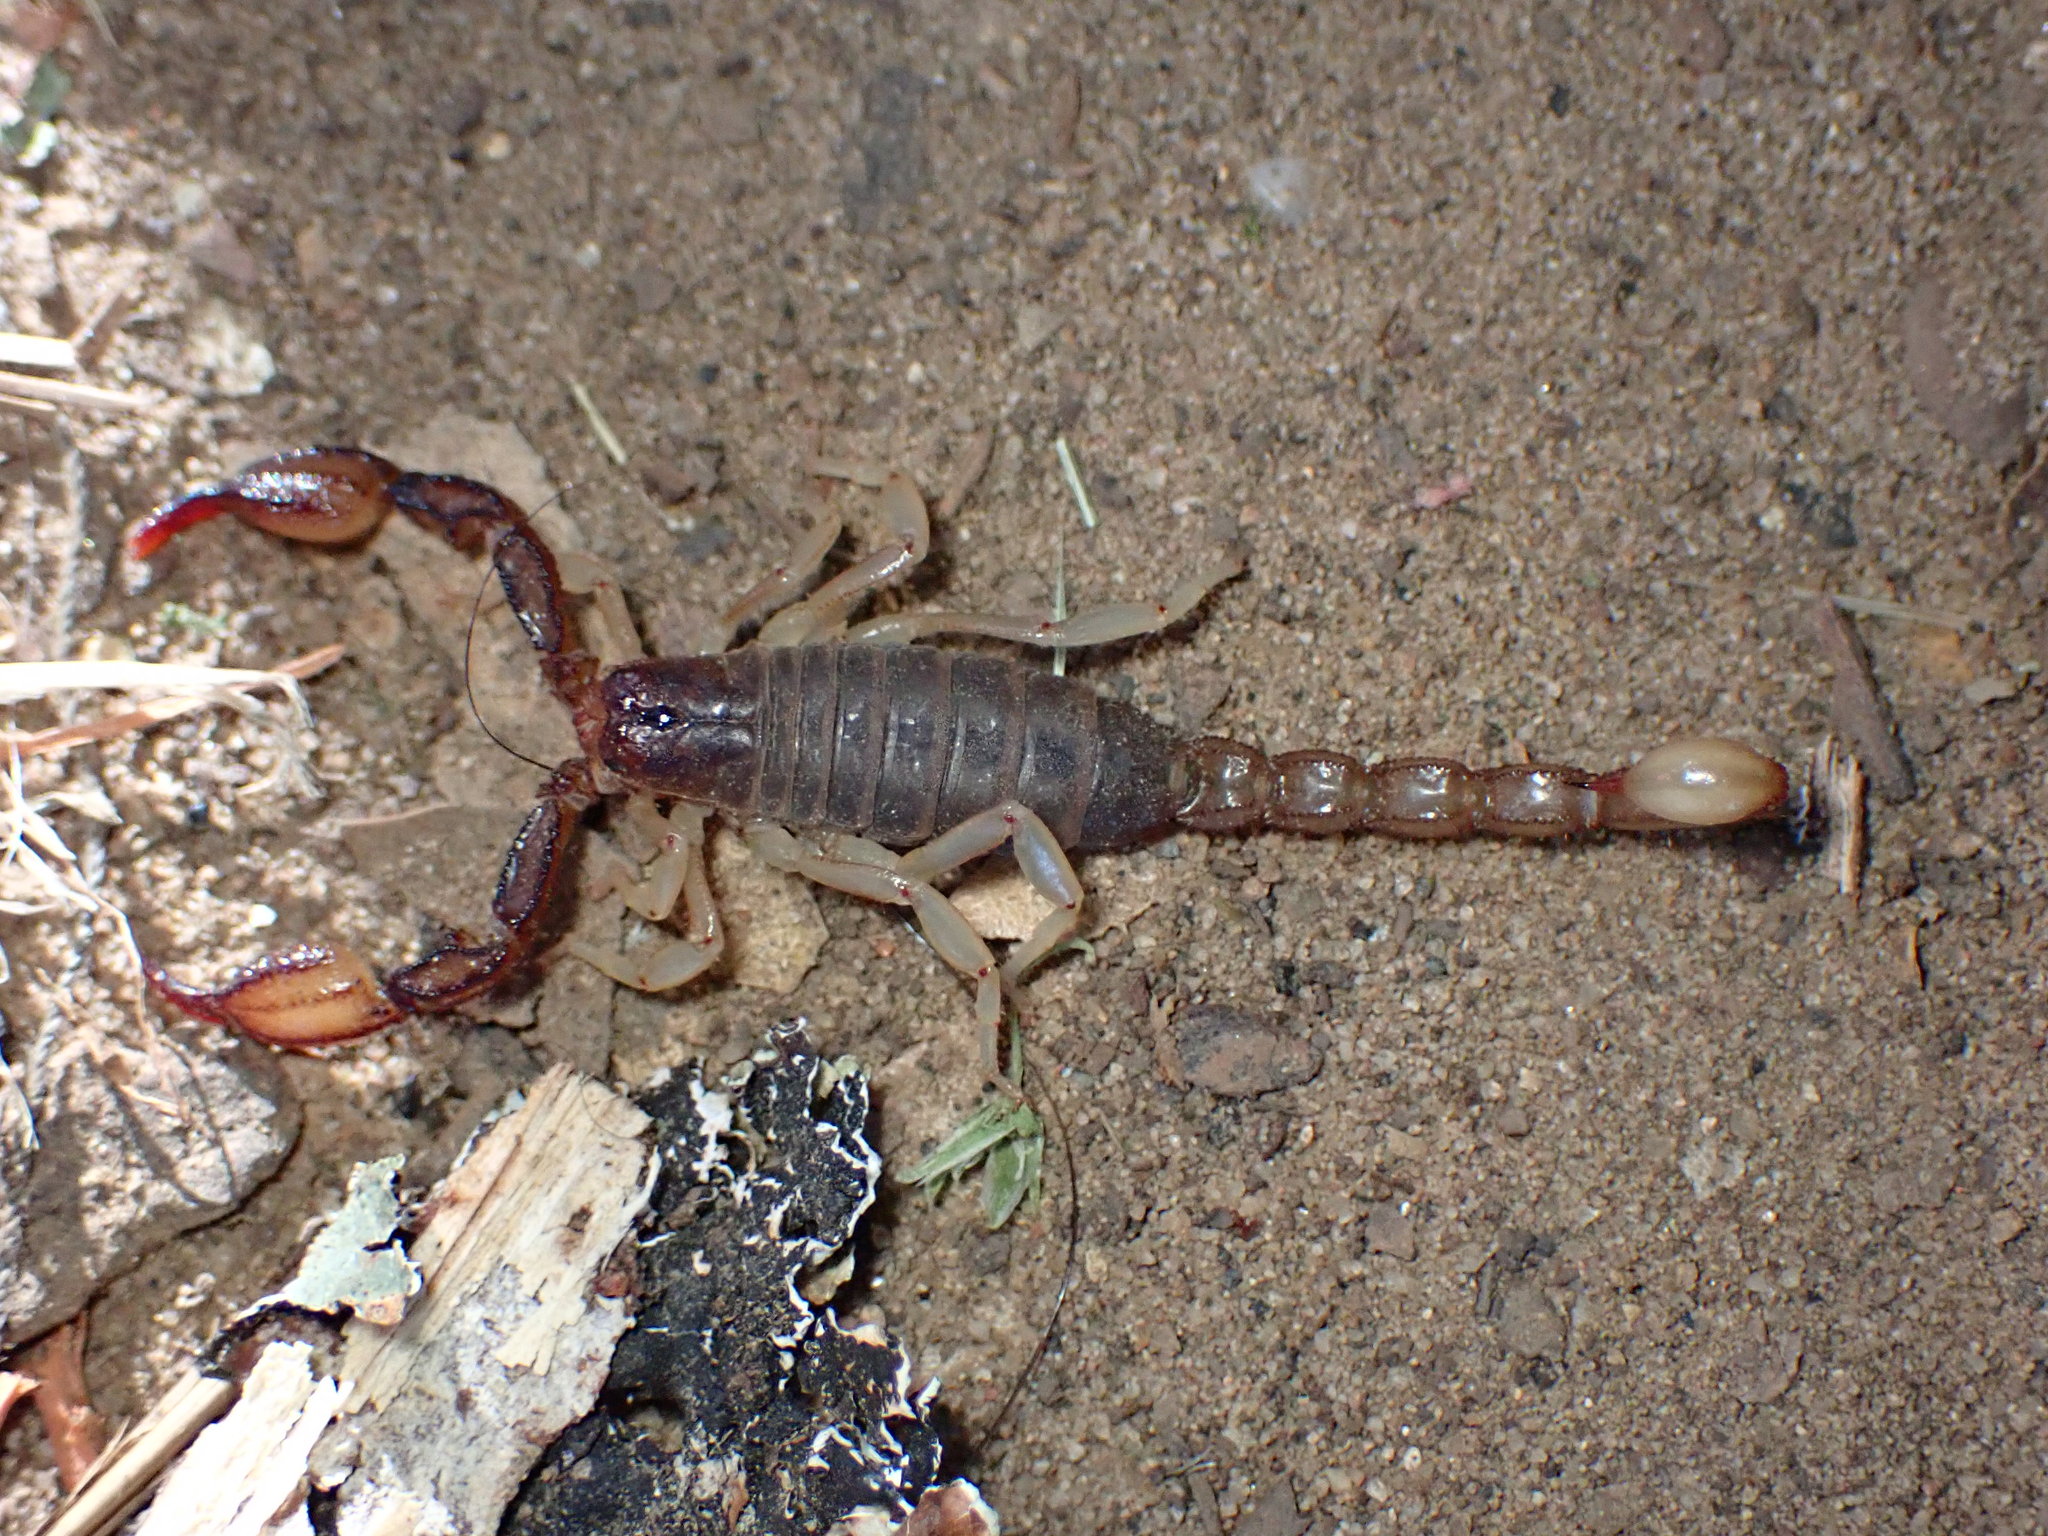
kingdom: Animalia
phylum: Arthropoda
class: Arachnida
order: Scorpiones
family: Chactidae
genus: Uroctonus
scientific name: Uroctonus mordax
